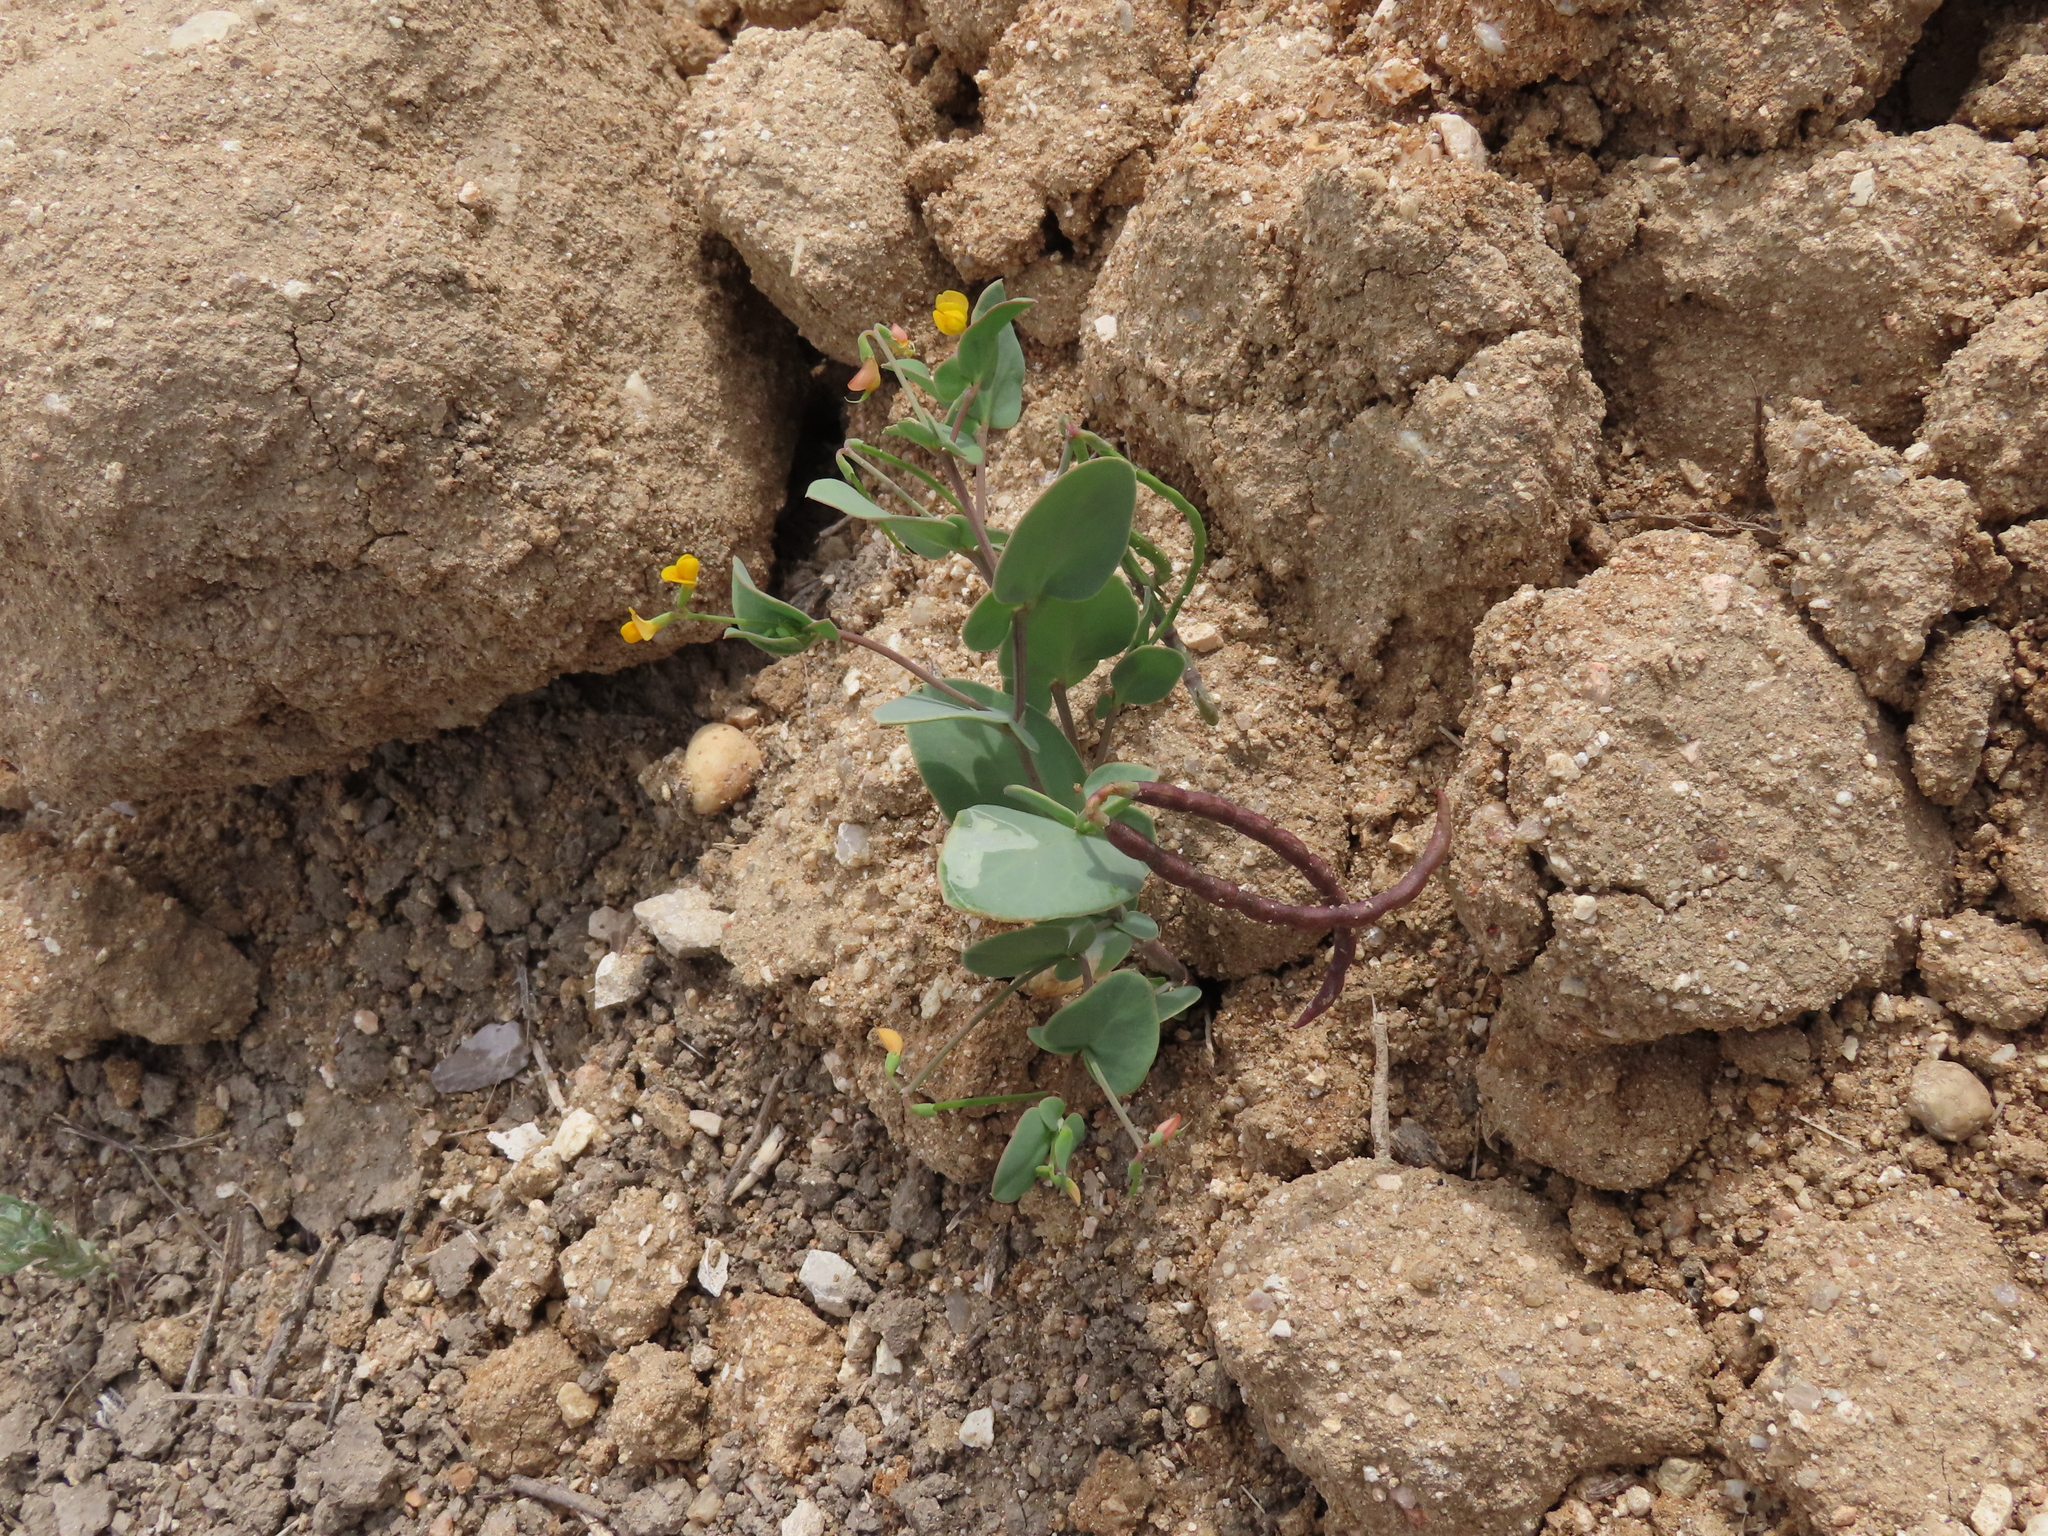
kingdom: Plantae
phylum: Tracheophyta
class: Magnoliopsida
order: Fabales
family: Fabaceae
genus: Coronilla
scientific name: Coronilla scorpioides
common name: Annual scorpion-vetch
